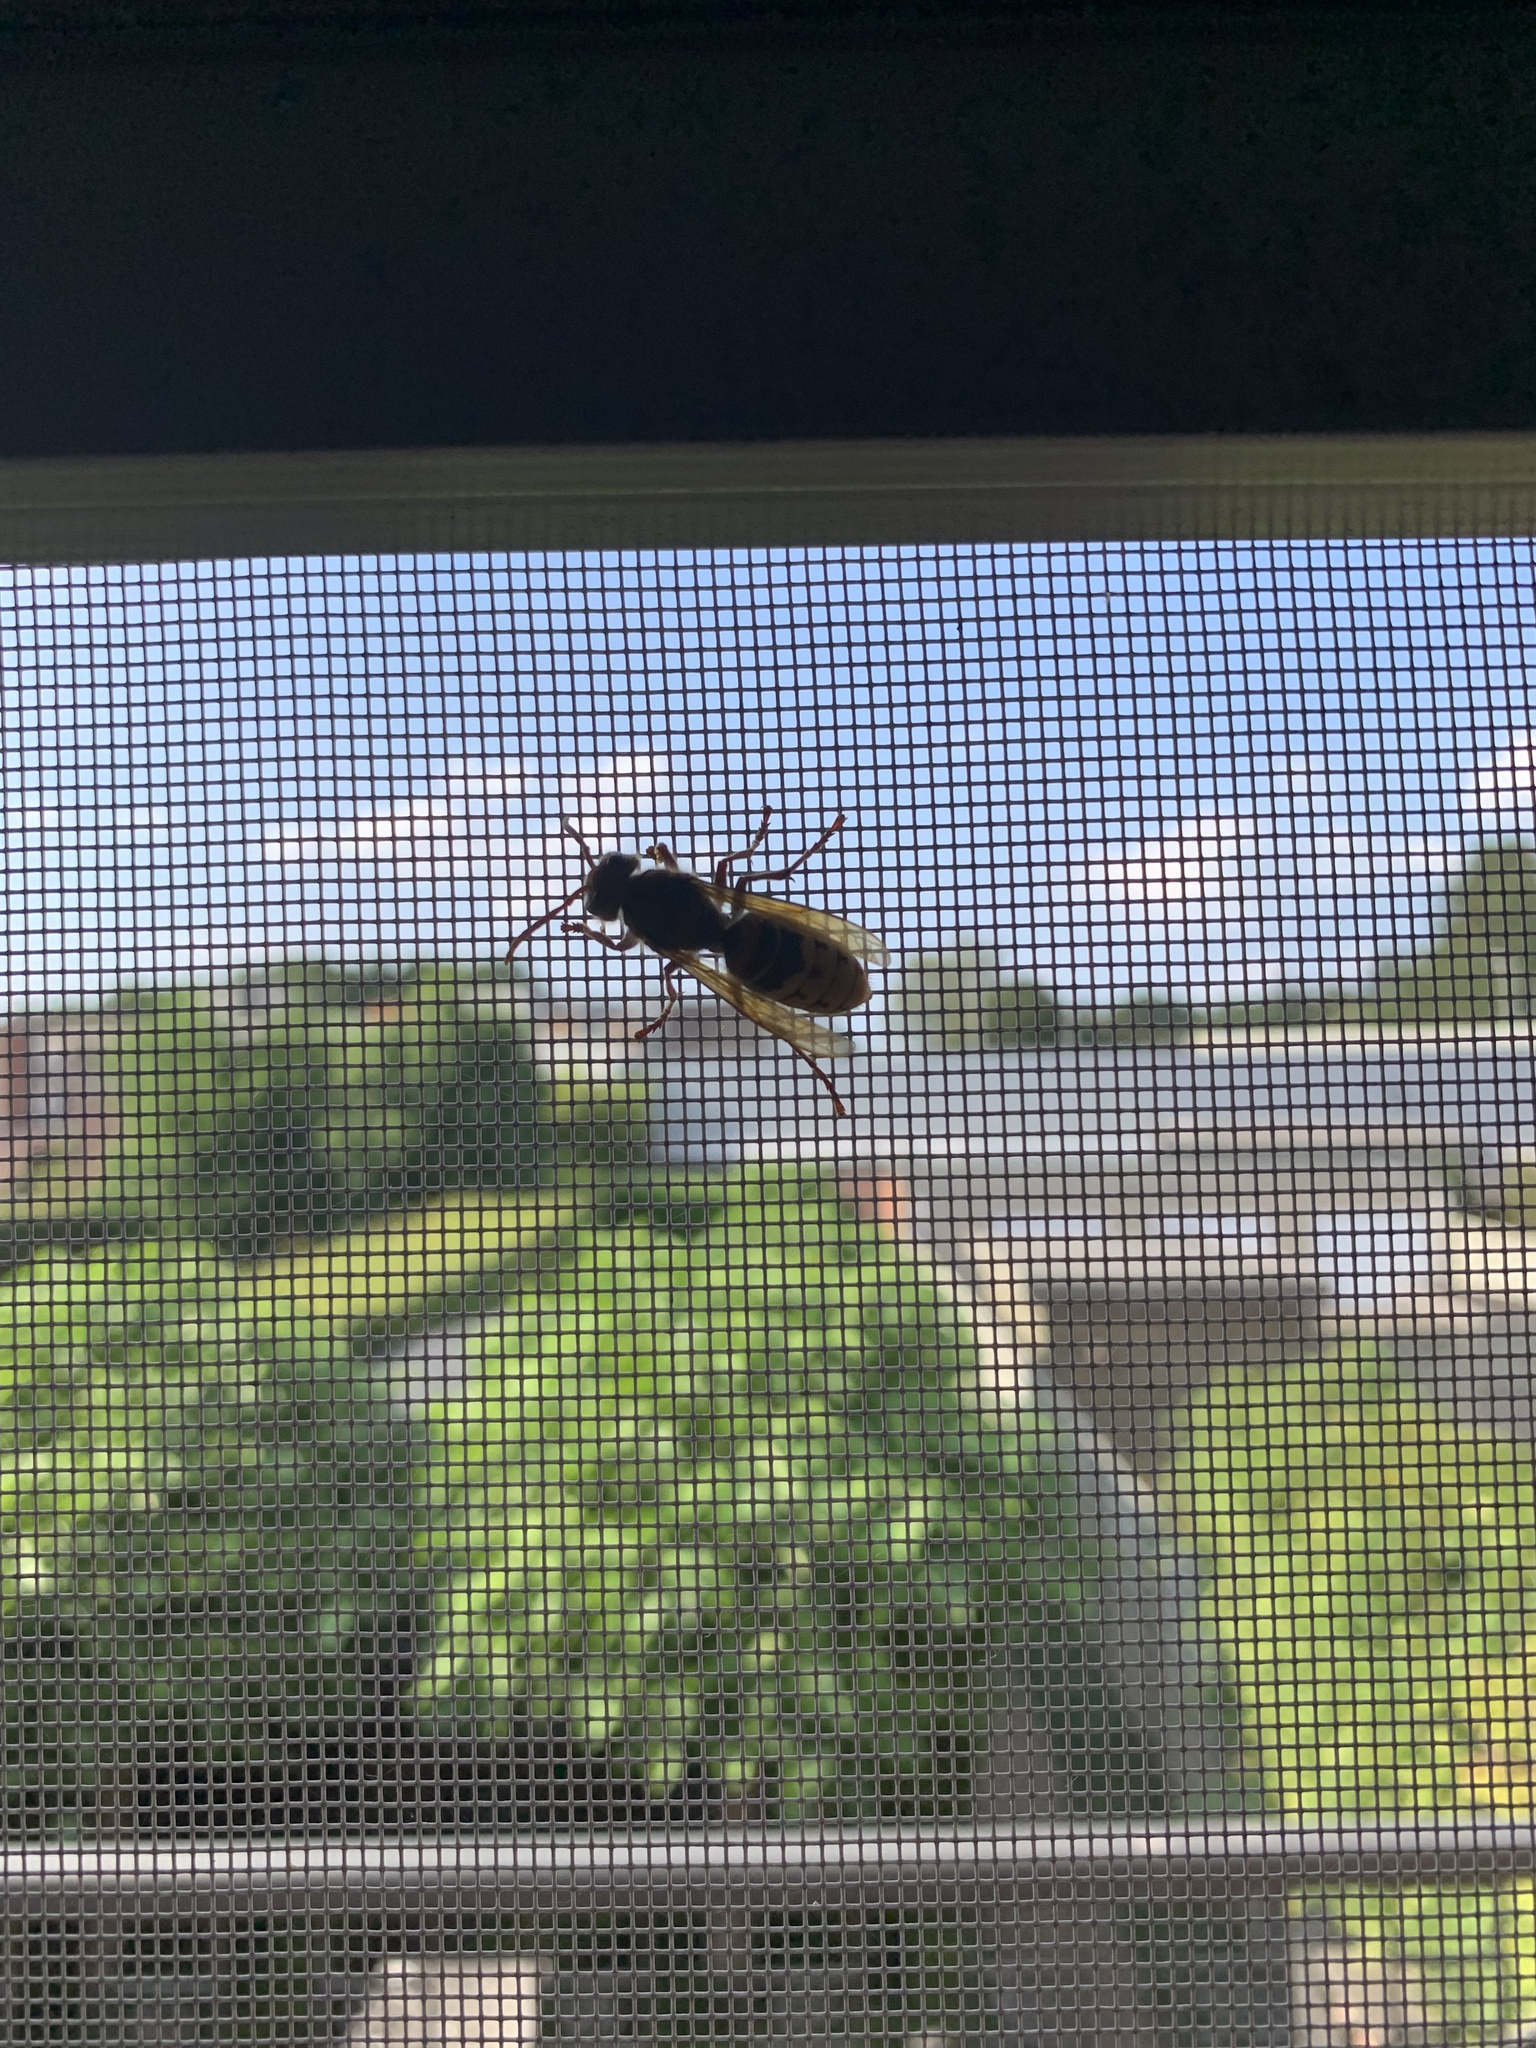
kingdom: Animalia
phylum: Arthropoda
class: Insecta
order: Hymenoptera
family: Vespidae
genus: Vespa
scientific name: Vespa crabro
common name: Hornet
